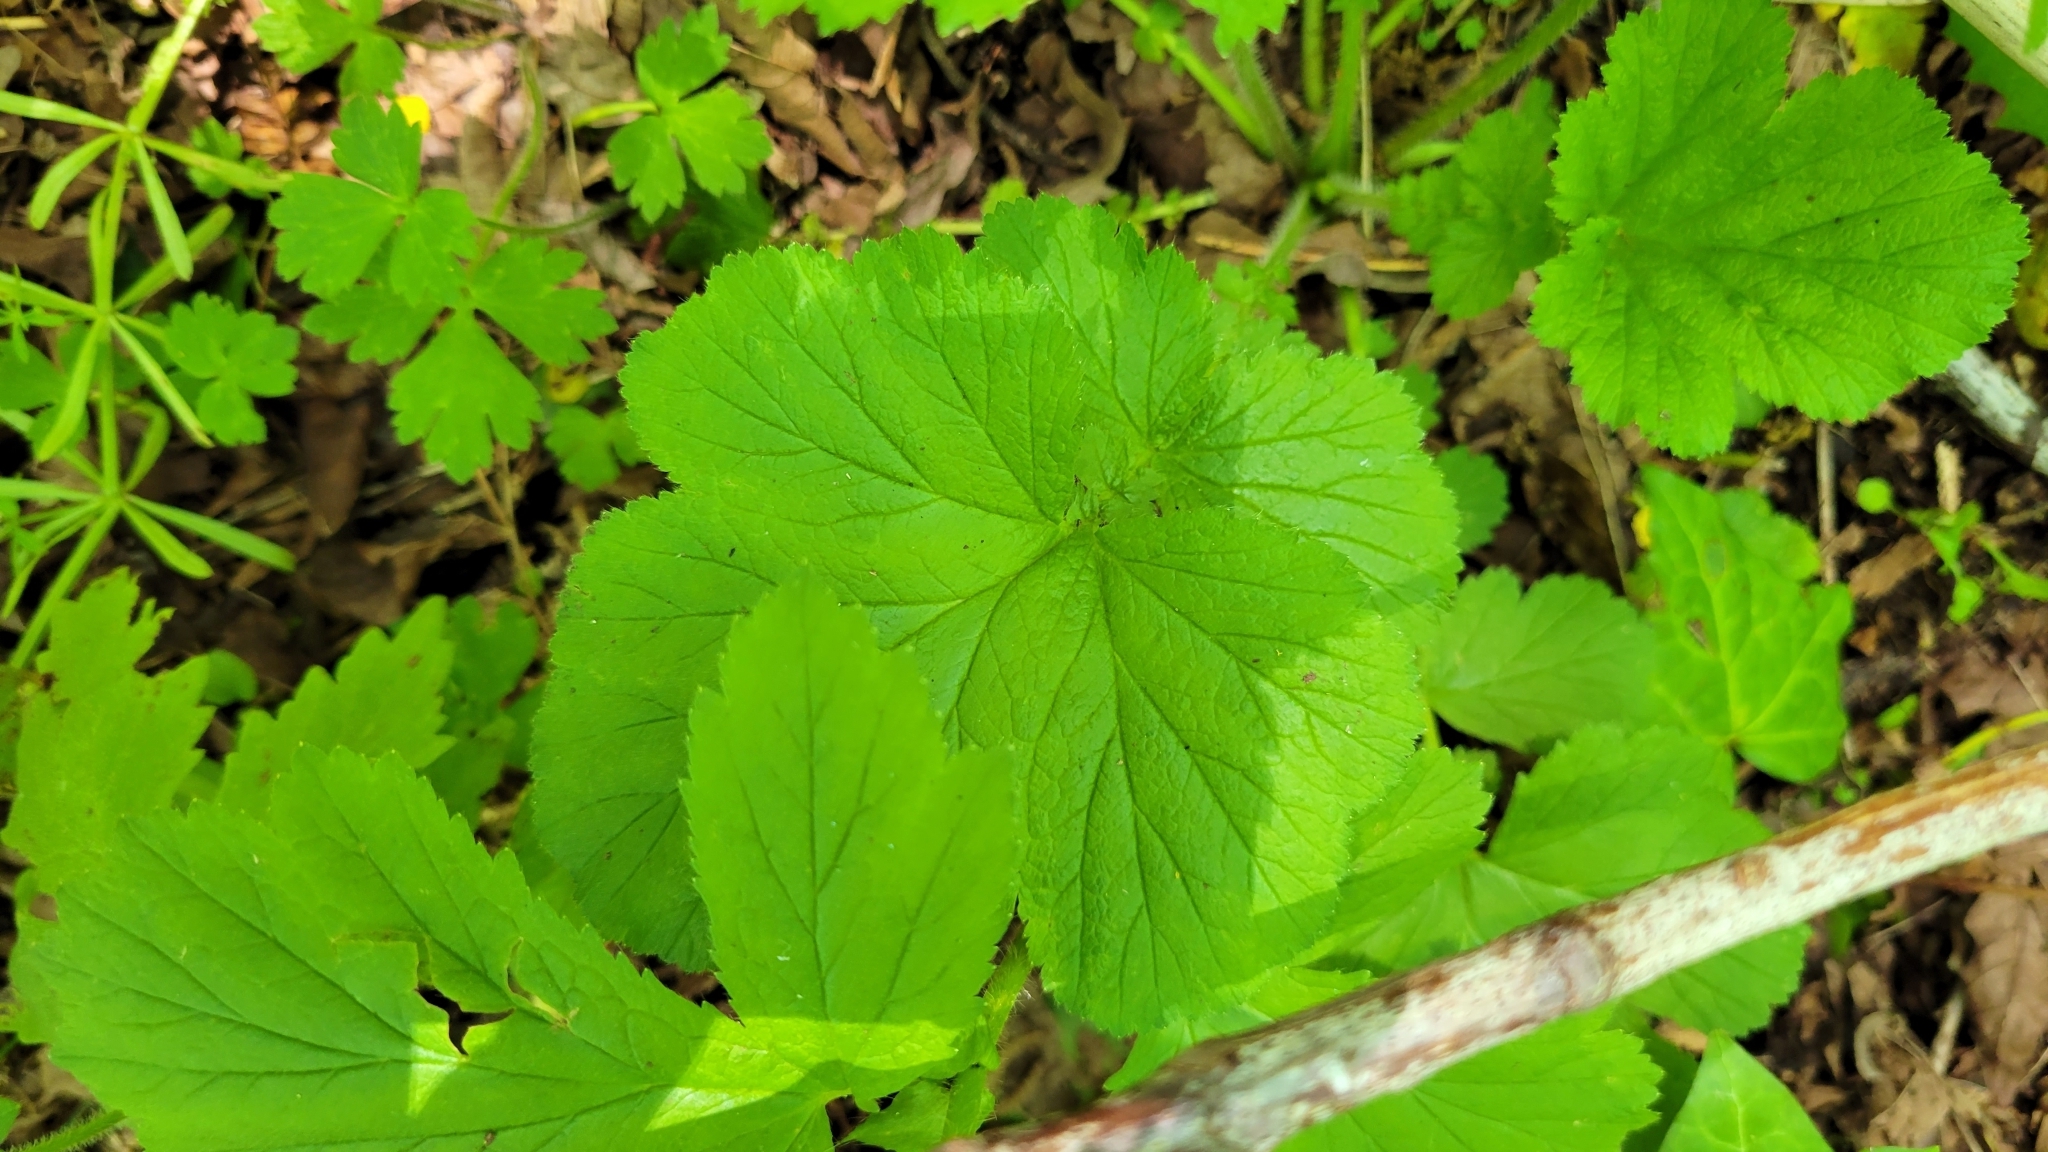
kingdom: Plantae
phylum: Tracheophyta
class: Magnoliopsida
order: Rosales
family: Rosaceae
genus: Geum
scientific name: Geum macrophyllum
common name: Large-leaved avens
